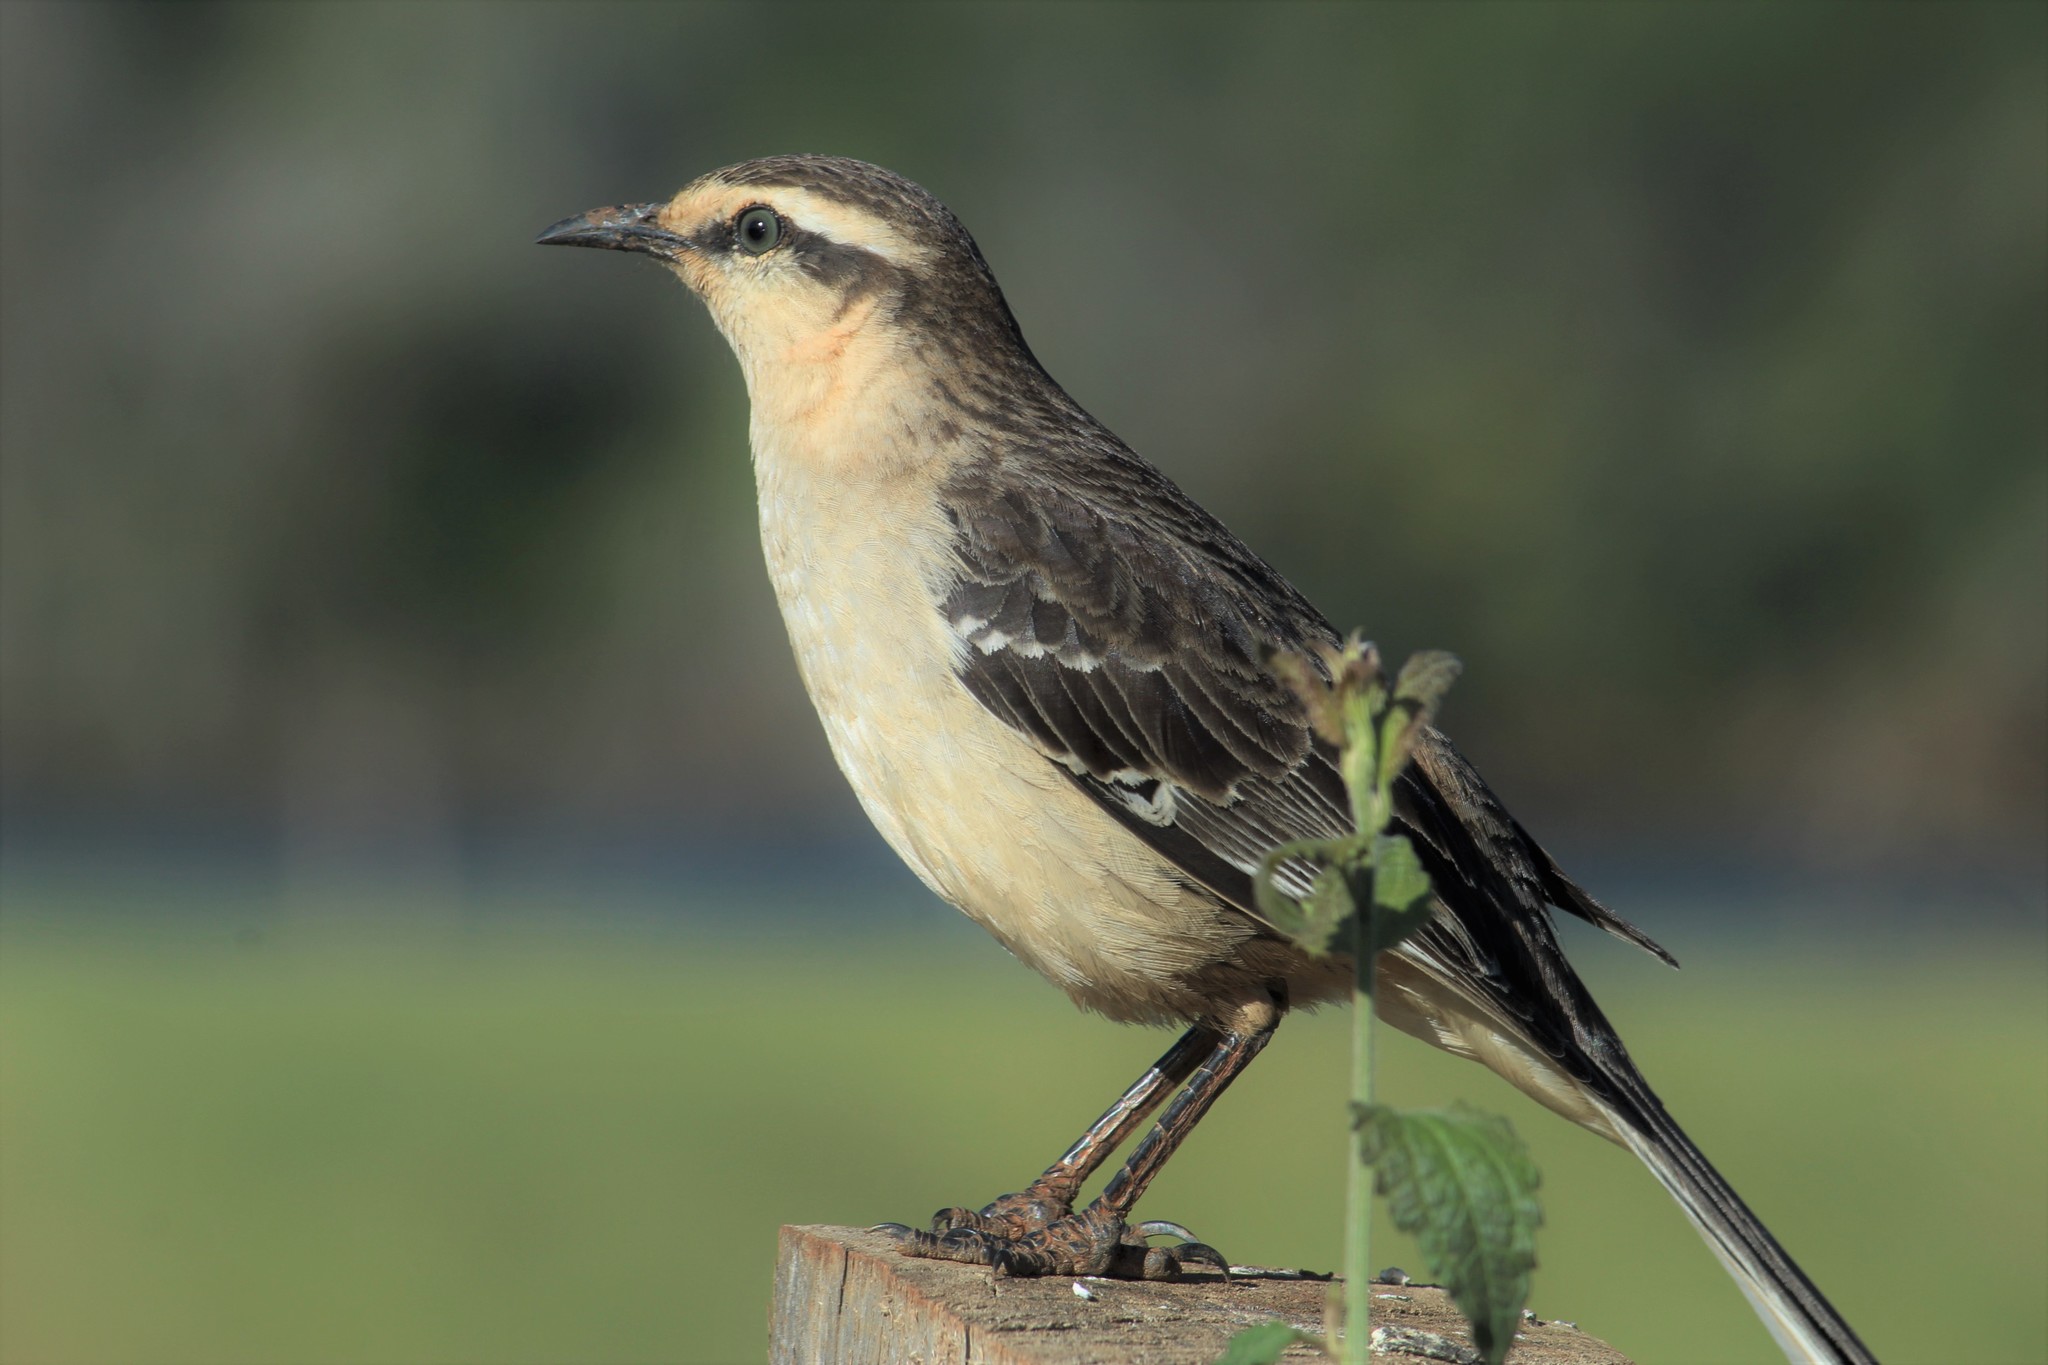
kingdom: Animalia
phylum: Chordata
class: Aves
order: Passeriformes
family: Mimidae
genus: Mimus
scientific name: Mimus saturninus
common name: Chalk-browed mockingbird
